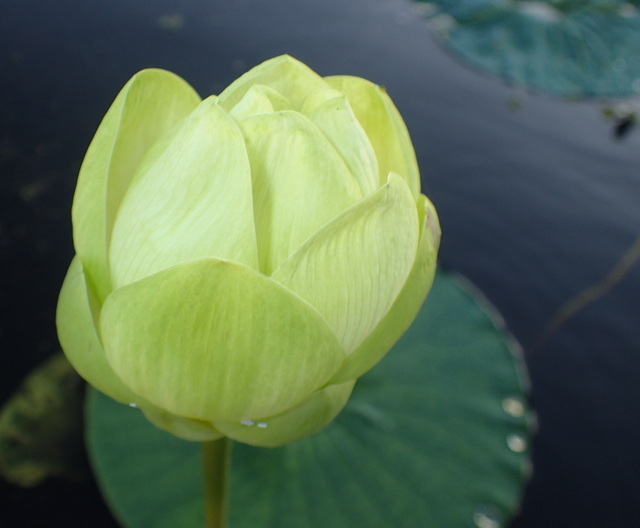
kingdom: Plantae
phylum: Tracheophyta
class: Magnoliopsida
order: Proteales
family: Nelumbonaceae
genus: Nelumbo
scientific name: Nelumbo lutea
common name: American lotus
